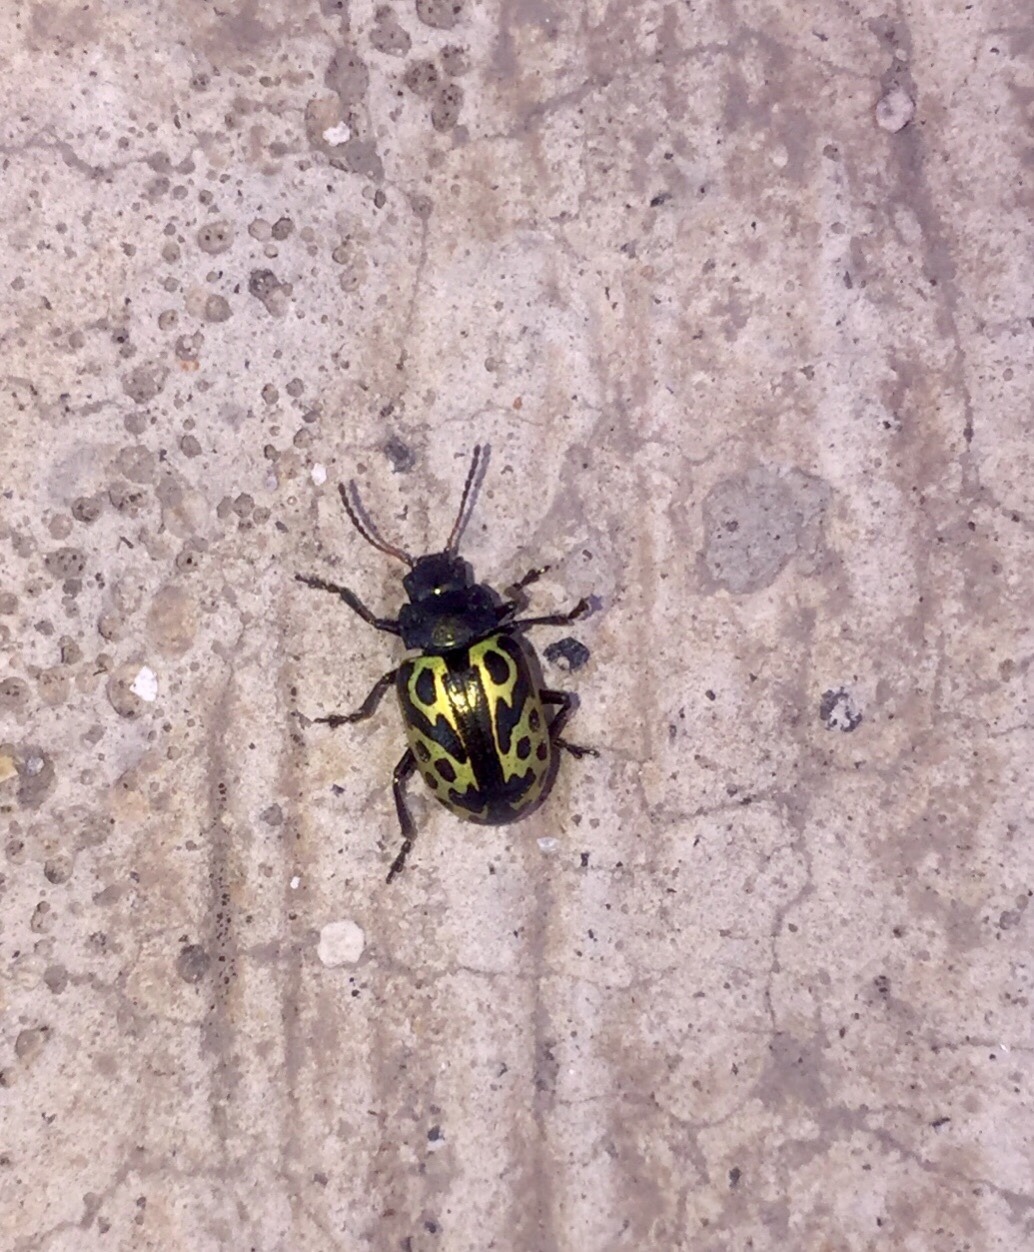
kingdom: Animalia
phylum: Arthropoda
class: Insecta
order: Coleoptera
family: Chrysomelidae
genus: Calligrapha
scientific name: Calligrapha
